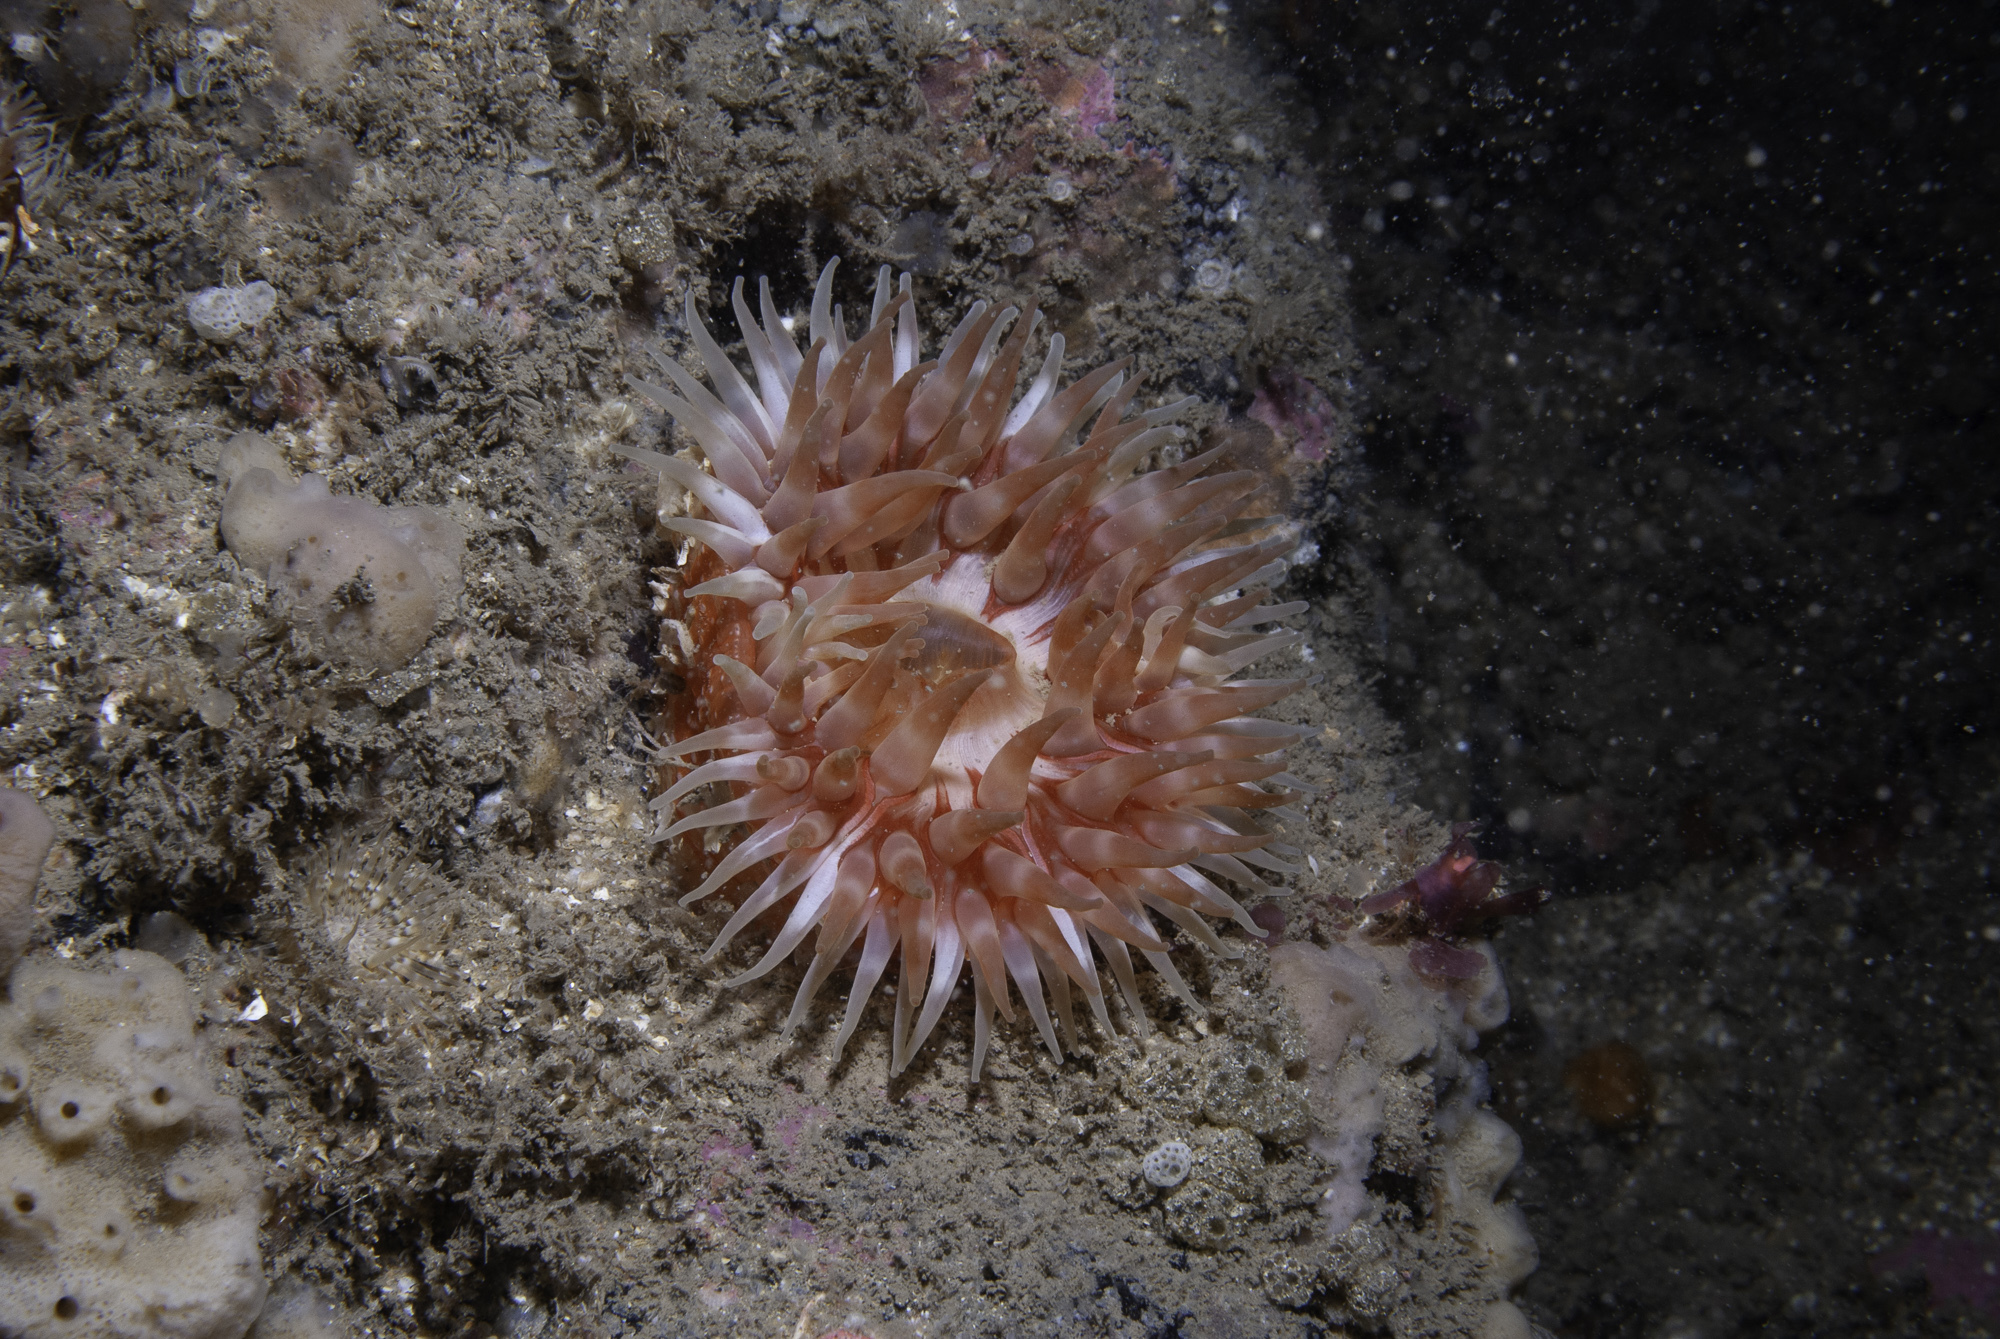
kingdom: Animalia
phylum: Cnidaria
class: Anthozoa
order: Actiniaria
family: Actiniidae
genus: Urticina
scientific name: Urticina felina
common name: Dahlia anemone
